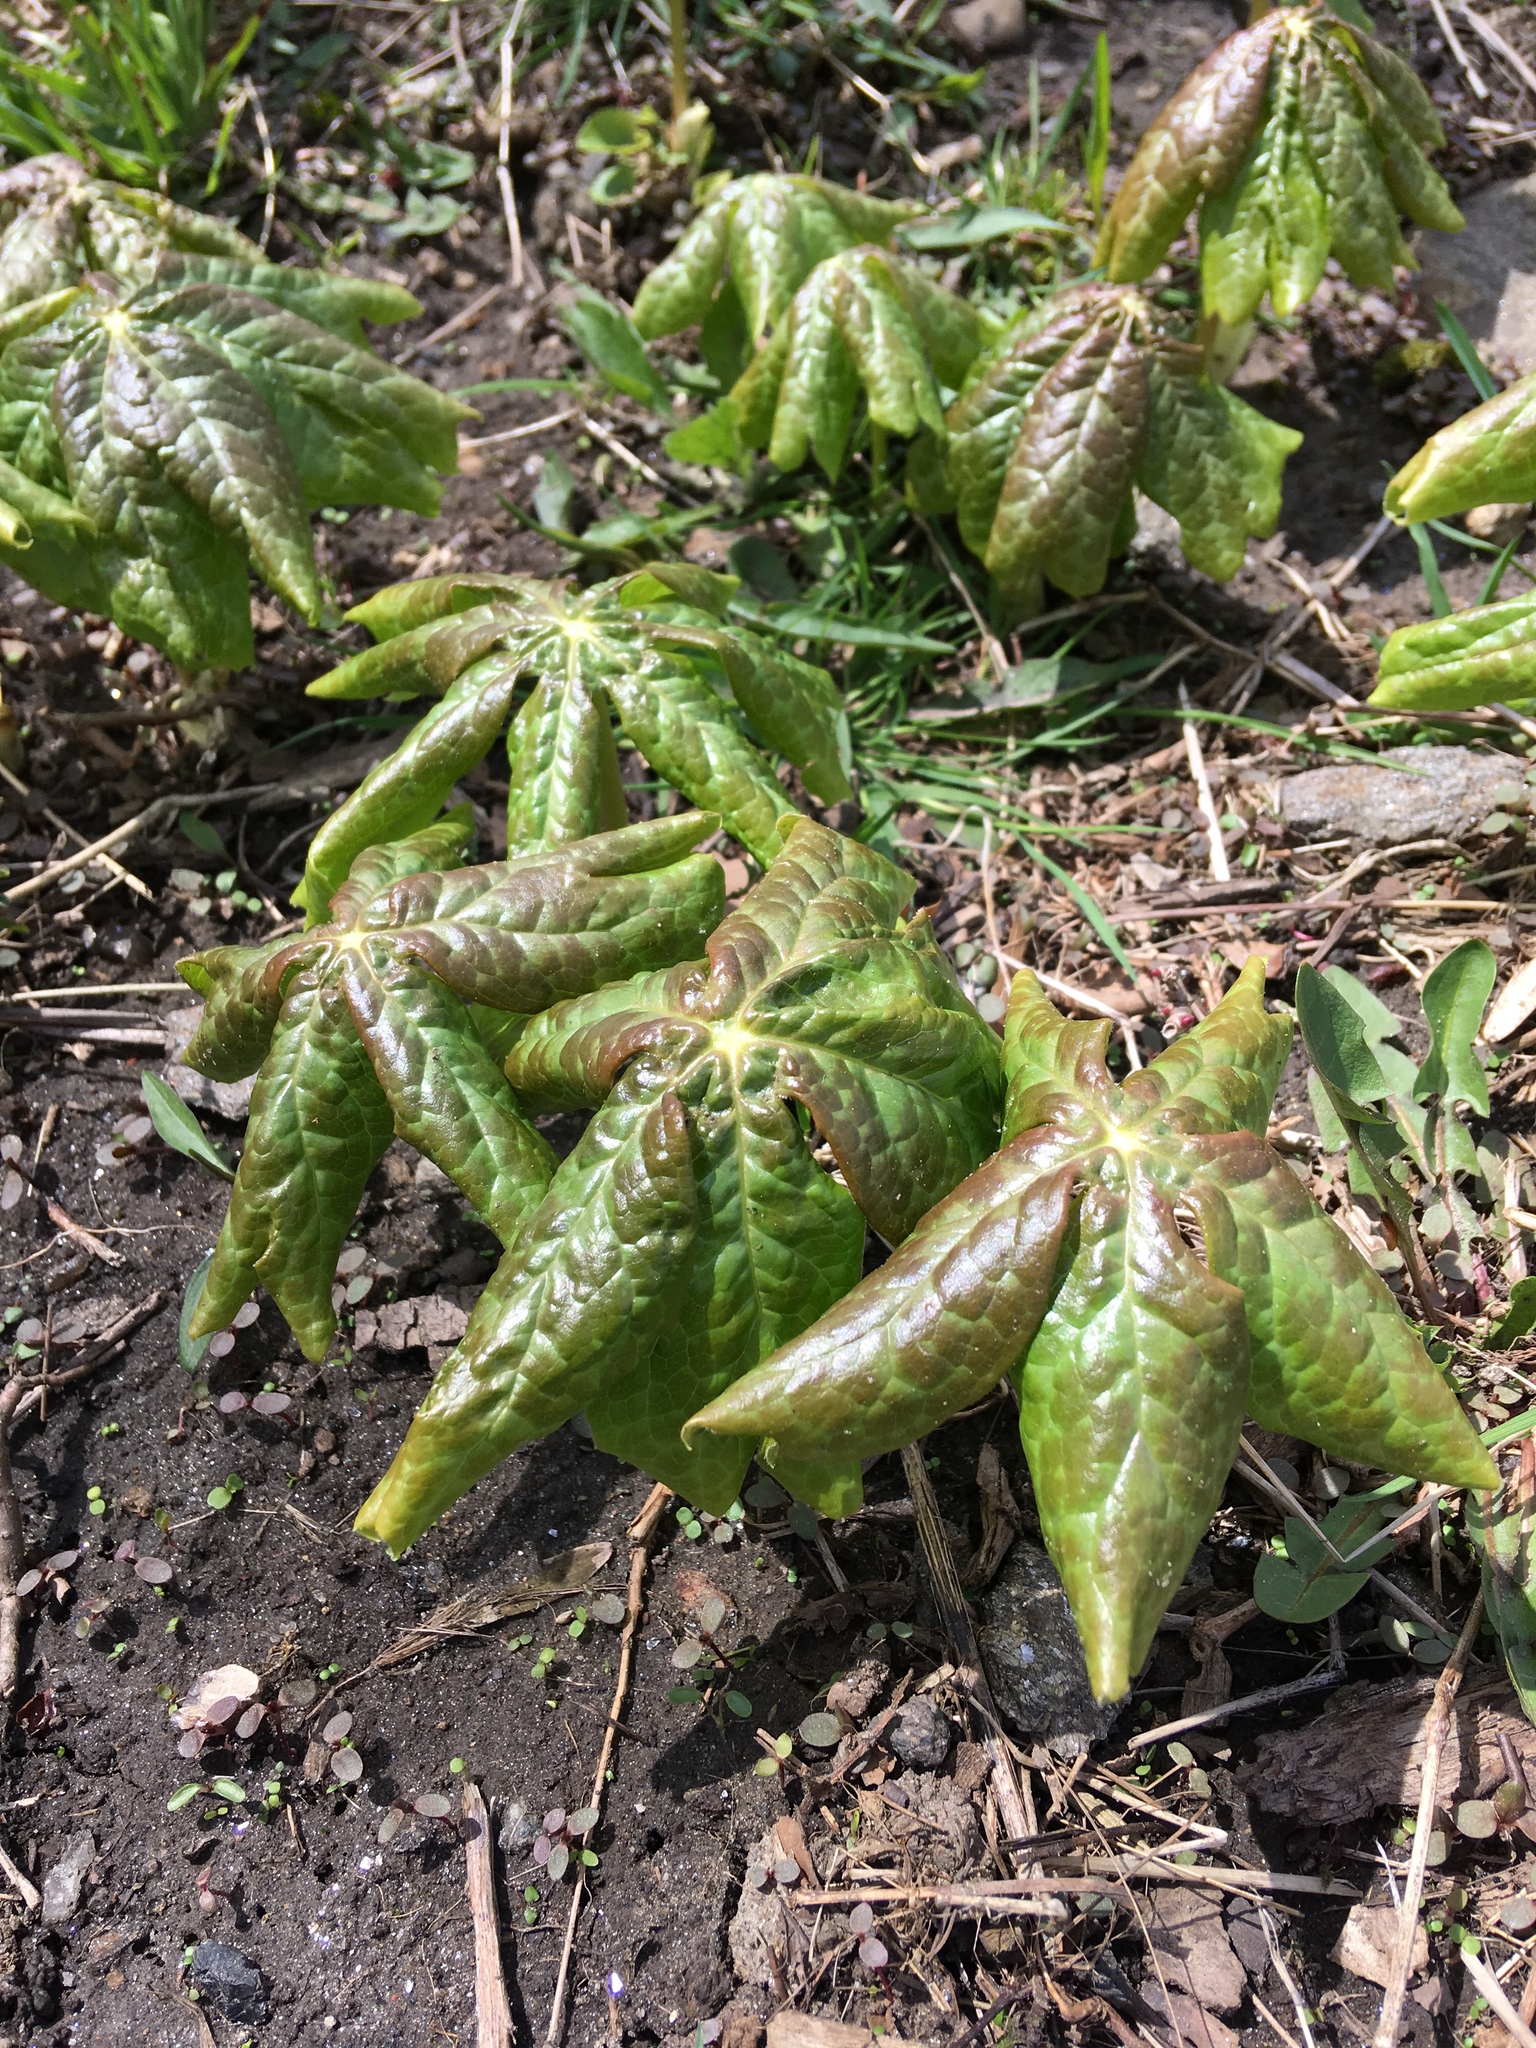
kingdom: Plantae
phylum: Tracheophyta
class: Magnoliopsida
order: Ranunculales
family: Berberidaceae
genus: Podophyllum
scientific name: Podophyllum peltatum
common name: Wild mandrake
